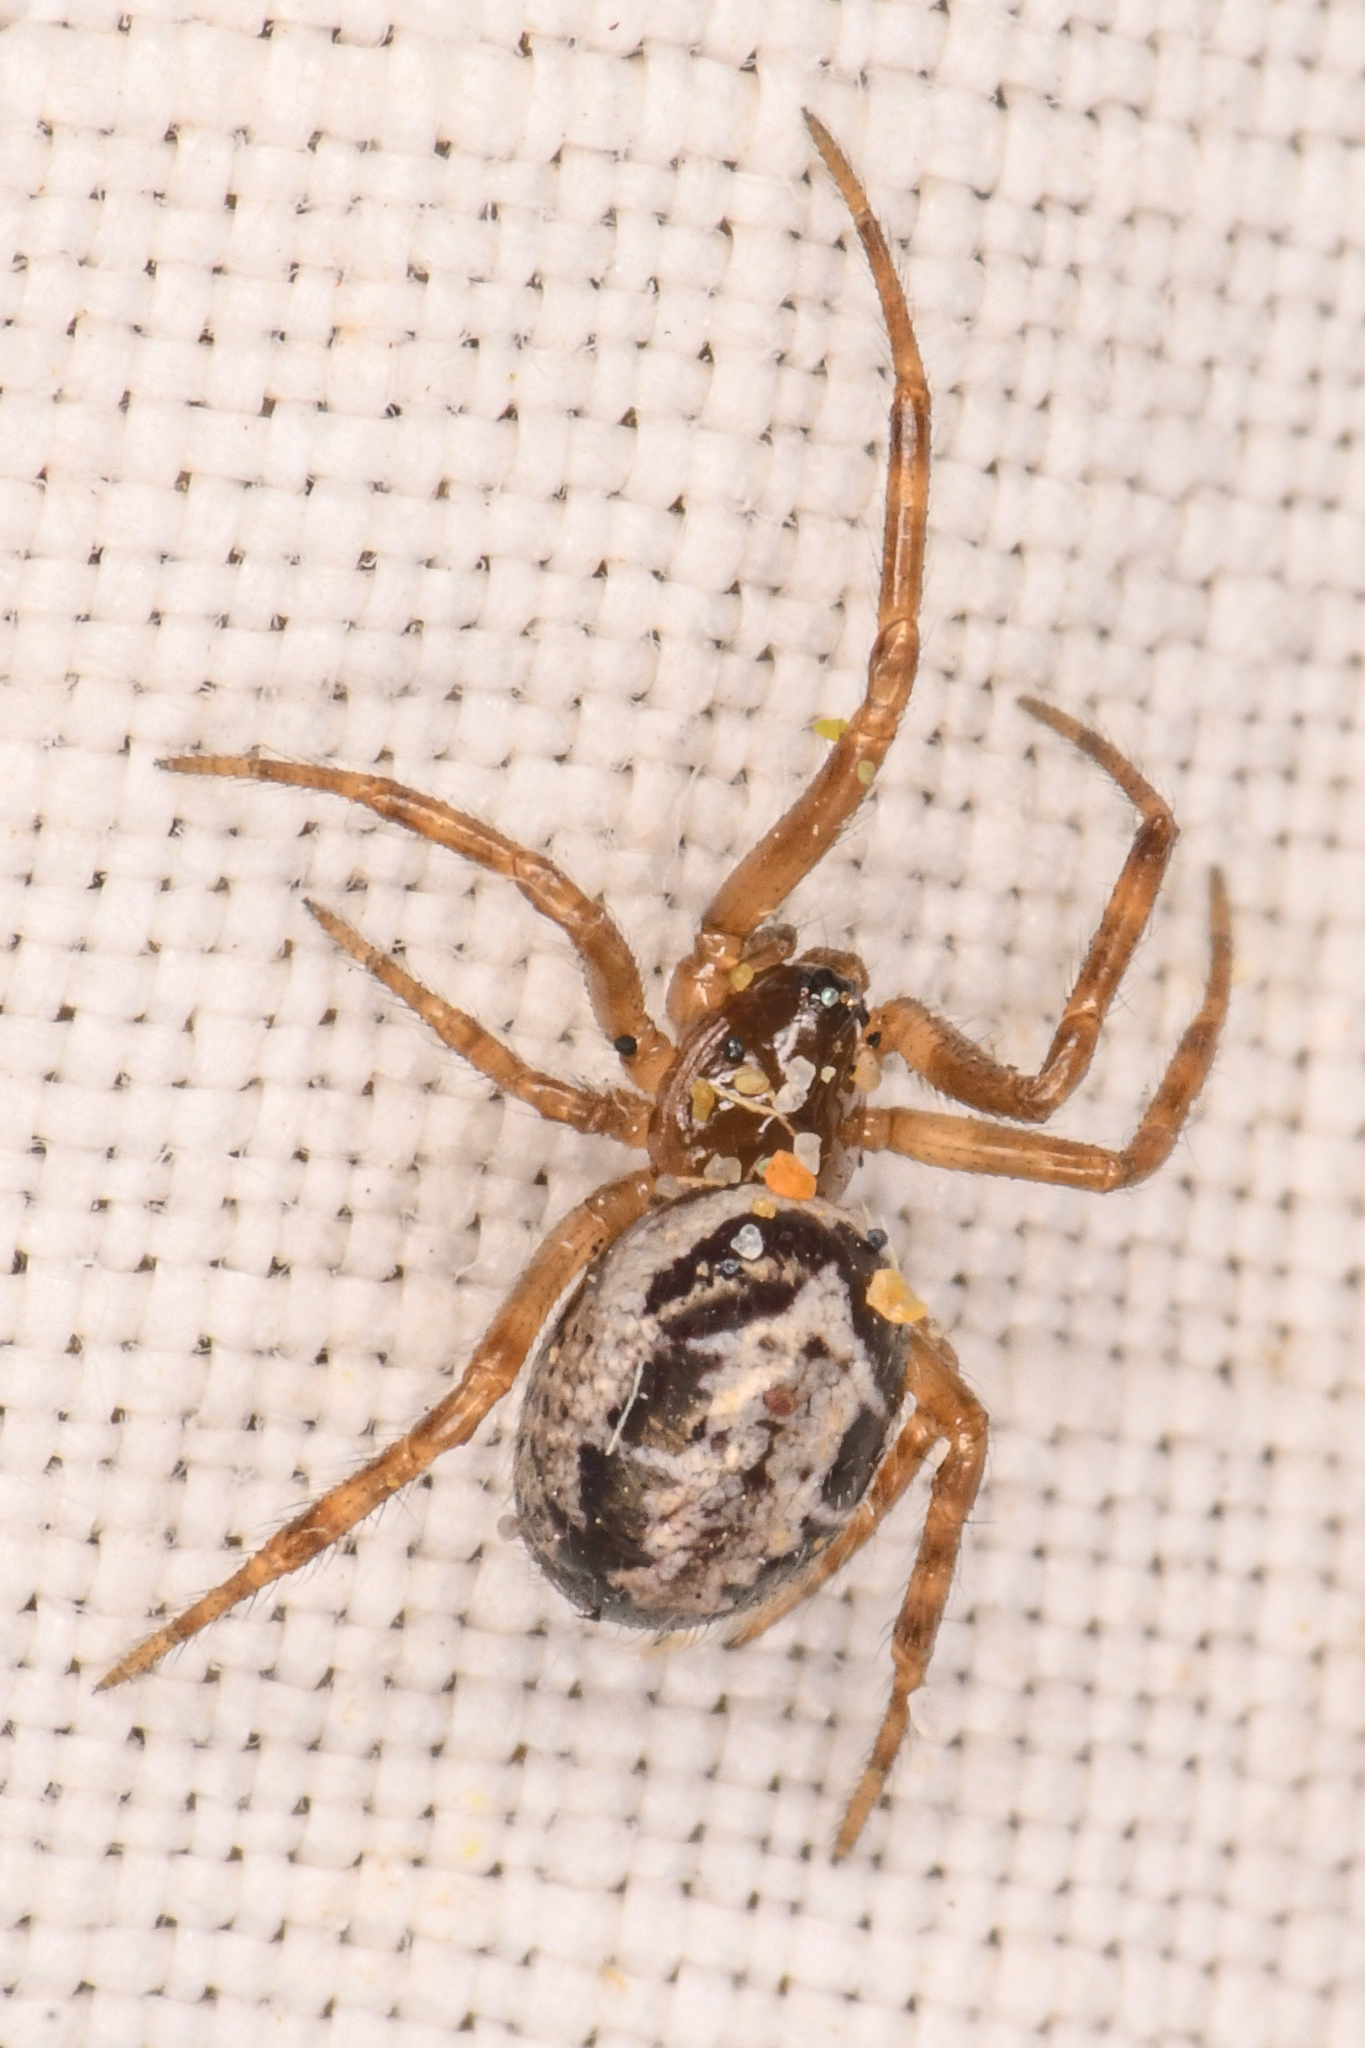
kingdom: Animalia
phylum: Arthropoda
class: Arachnida
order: Araneae
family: Theridiidae
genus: Steatoda
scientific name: Steatoda nobilis
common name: Cobweb weaver
